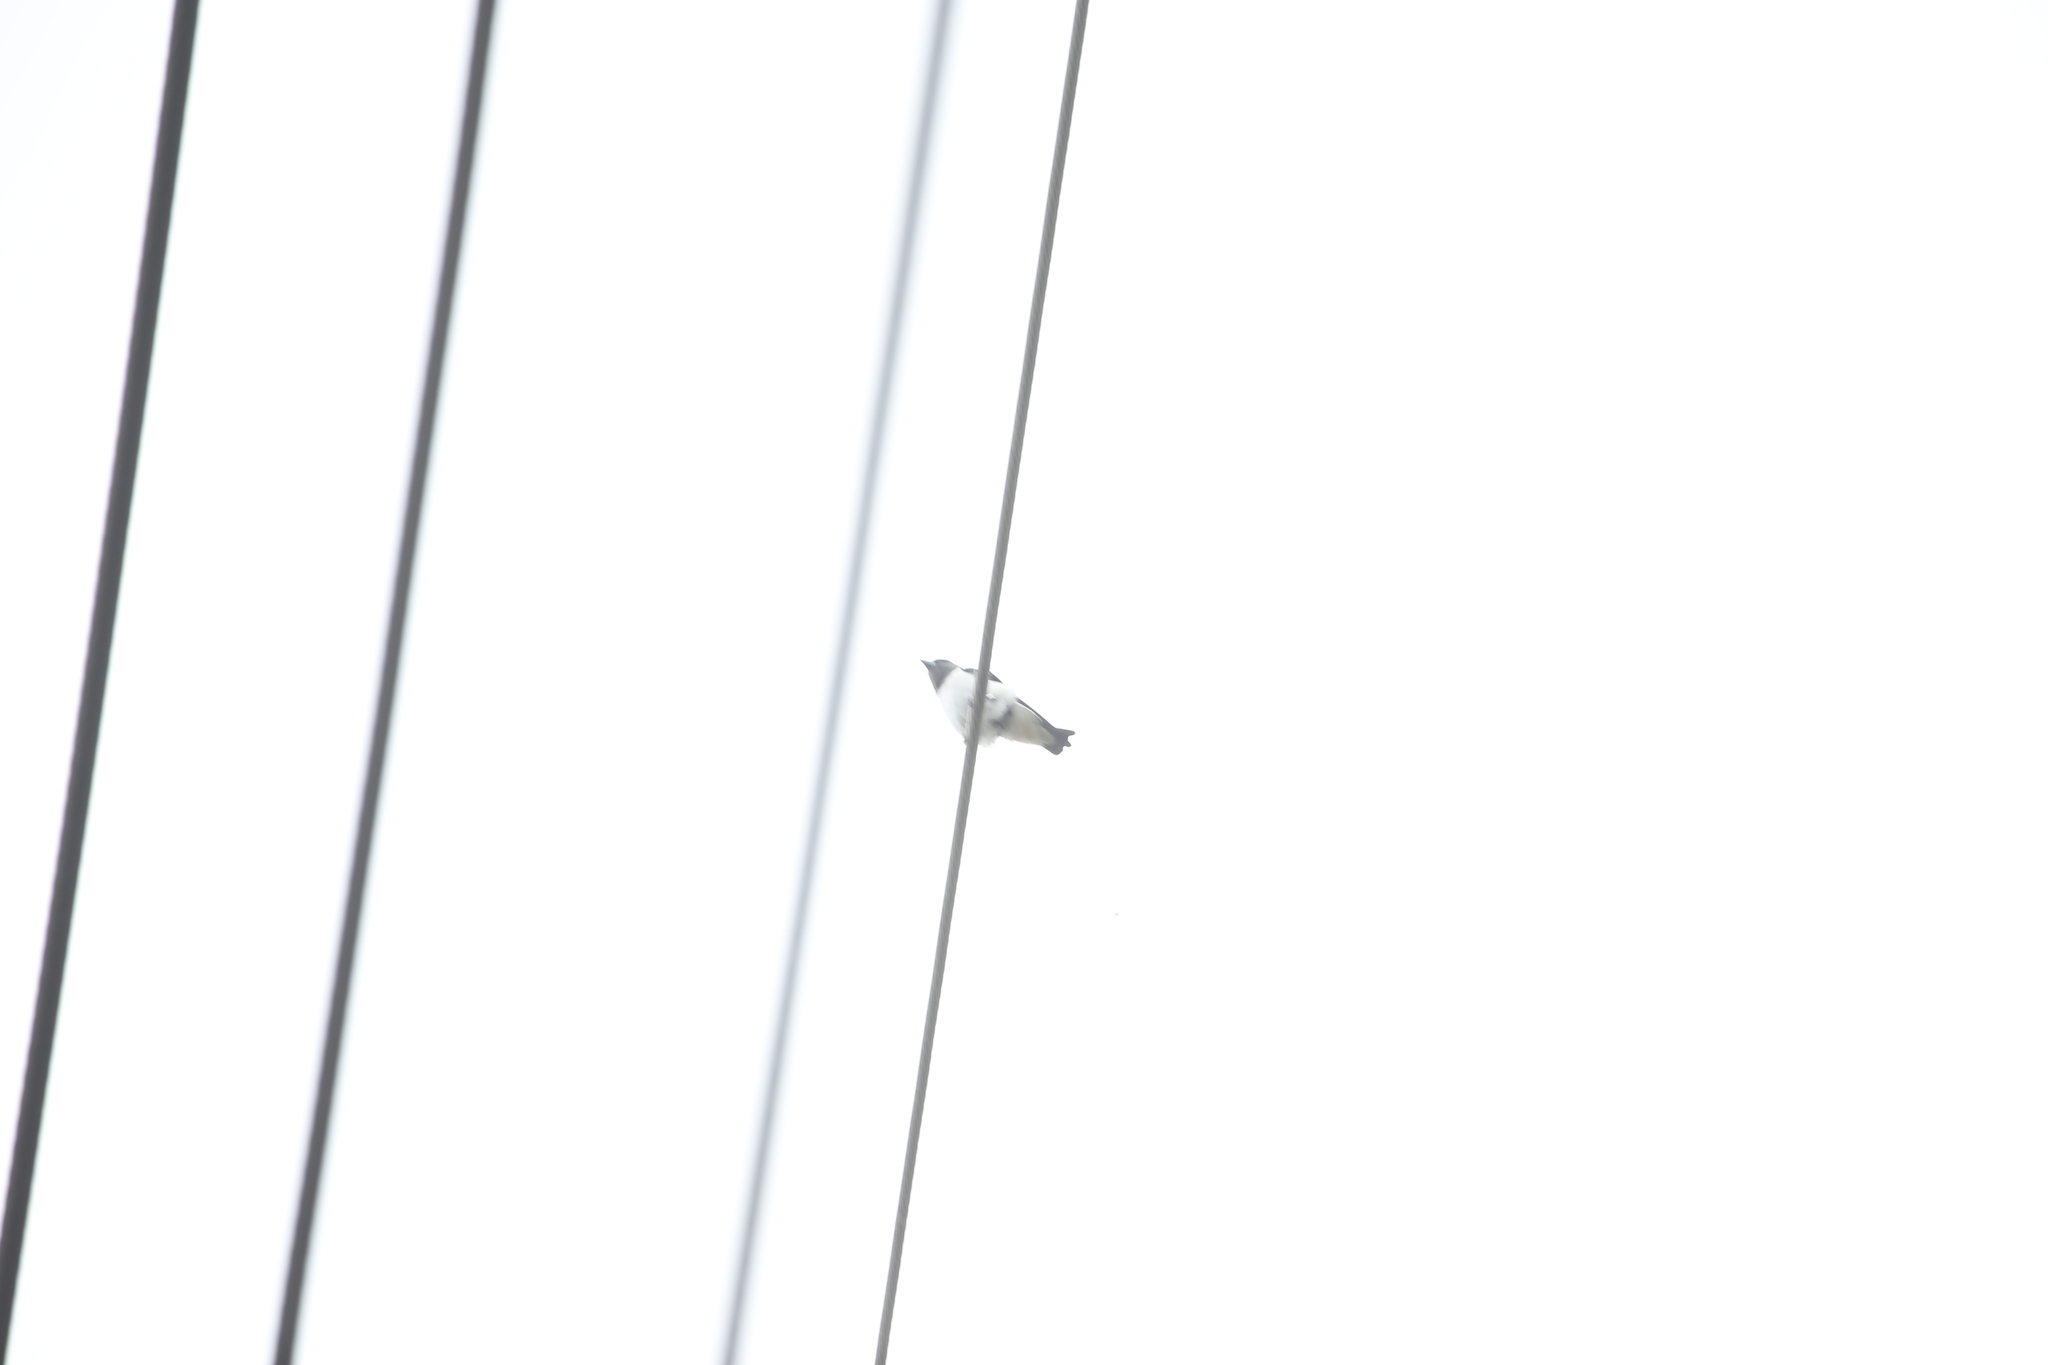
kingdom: Animalia
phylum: Chordata
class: Aves
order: Passeriformes
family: Artamidae
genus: Artamus
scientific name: Artamus leucoryn
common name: White-breasted woodswallow
